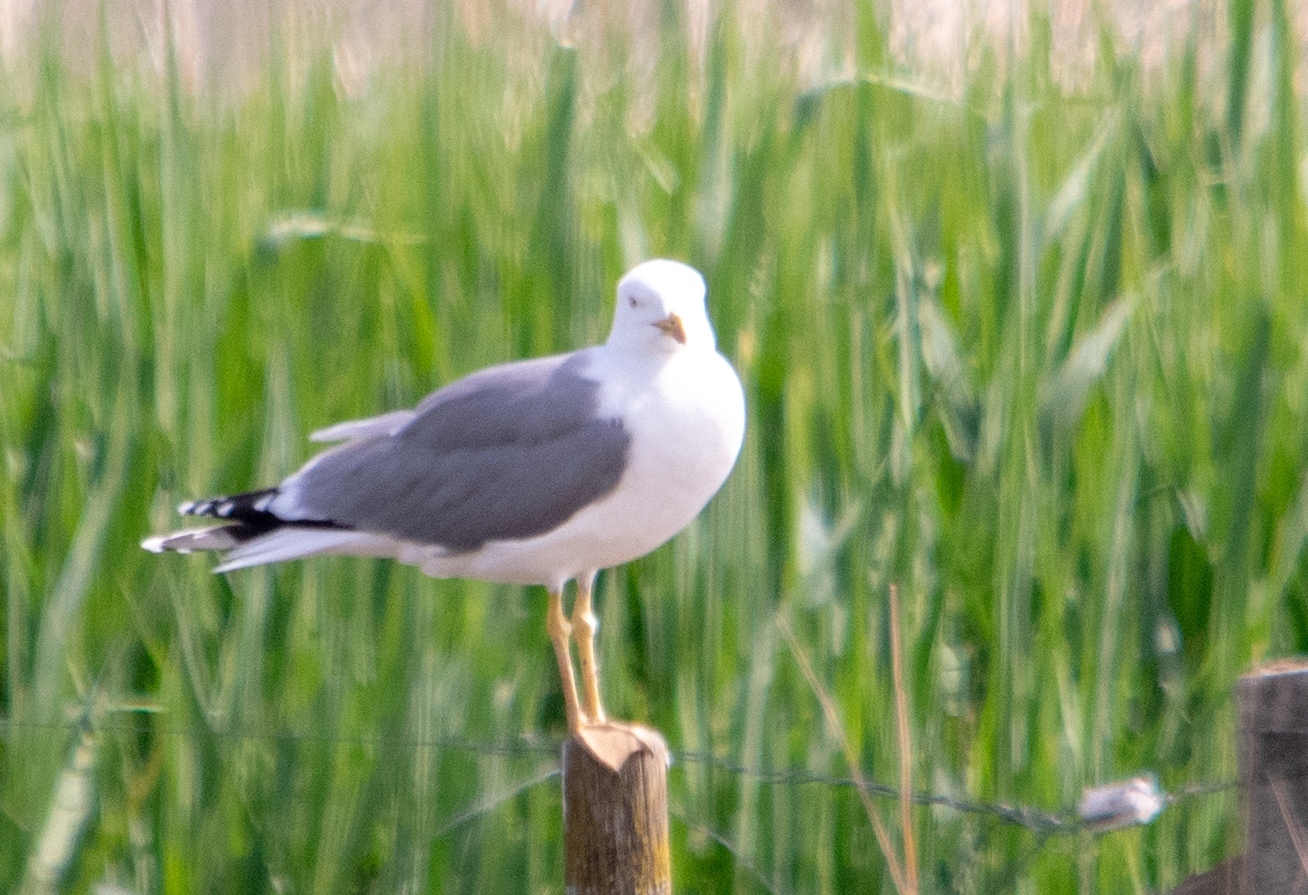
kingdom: Animalia
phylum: Chordata
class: Aves
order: Charadriiformes
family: Laridae
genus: Larus
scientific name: Larus michahellis
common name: Yellow-legged gull
